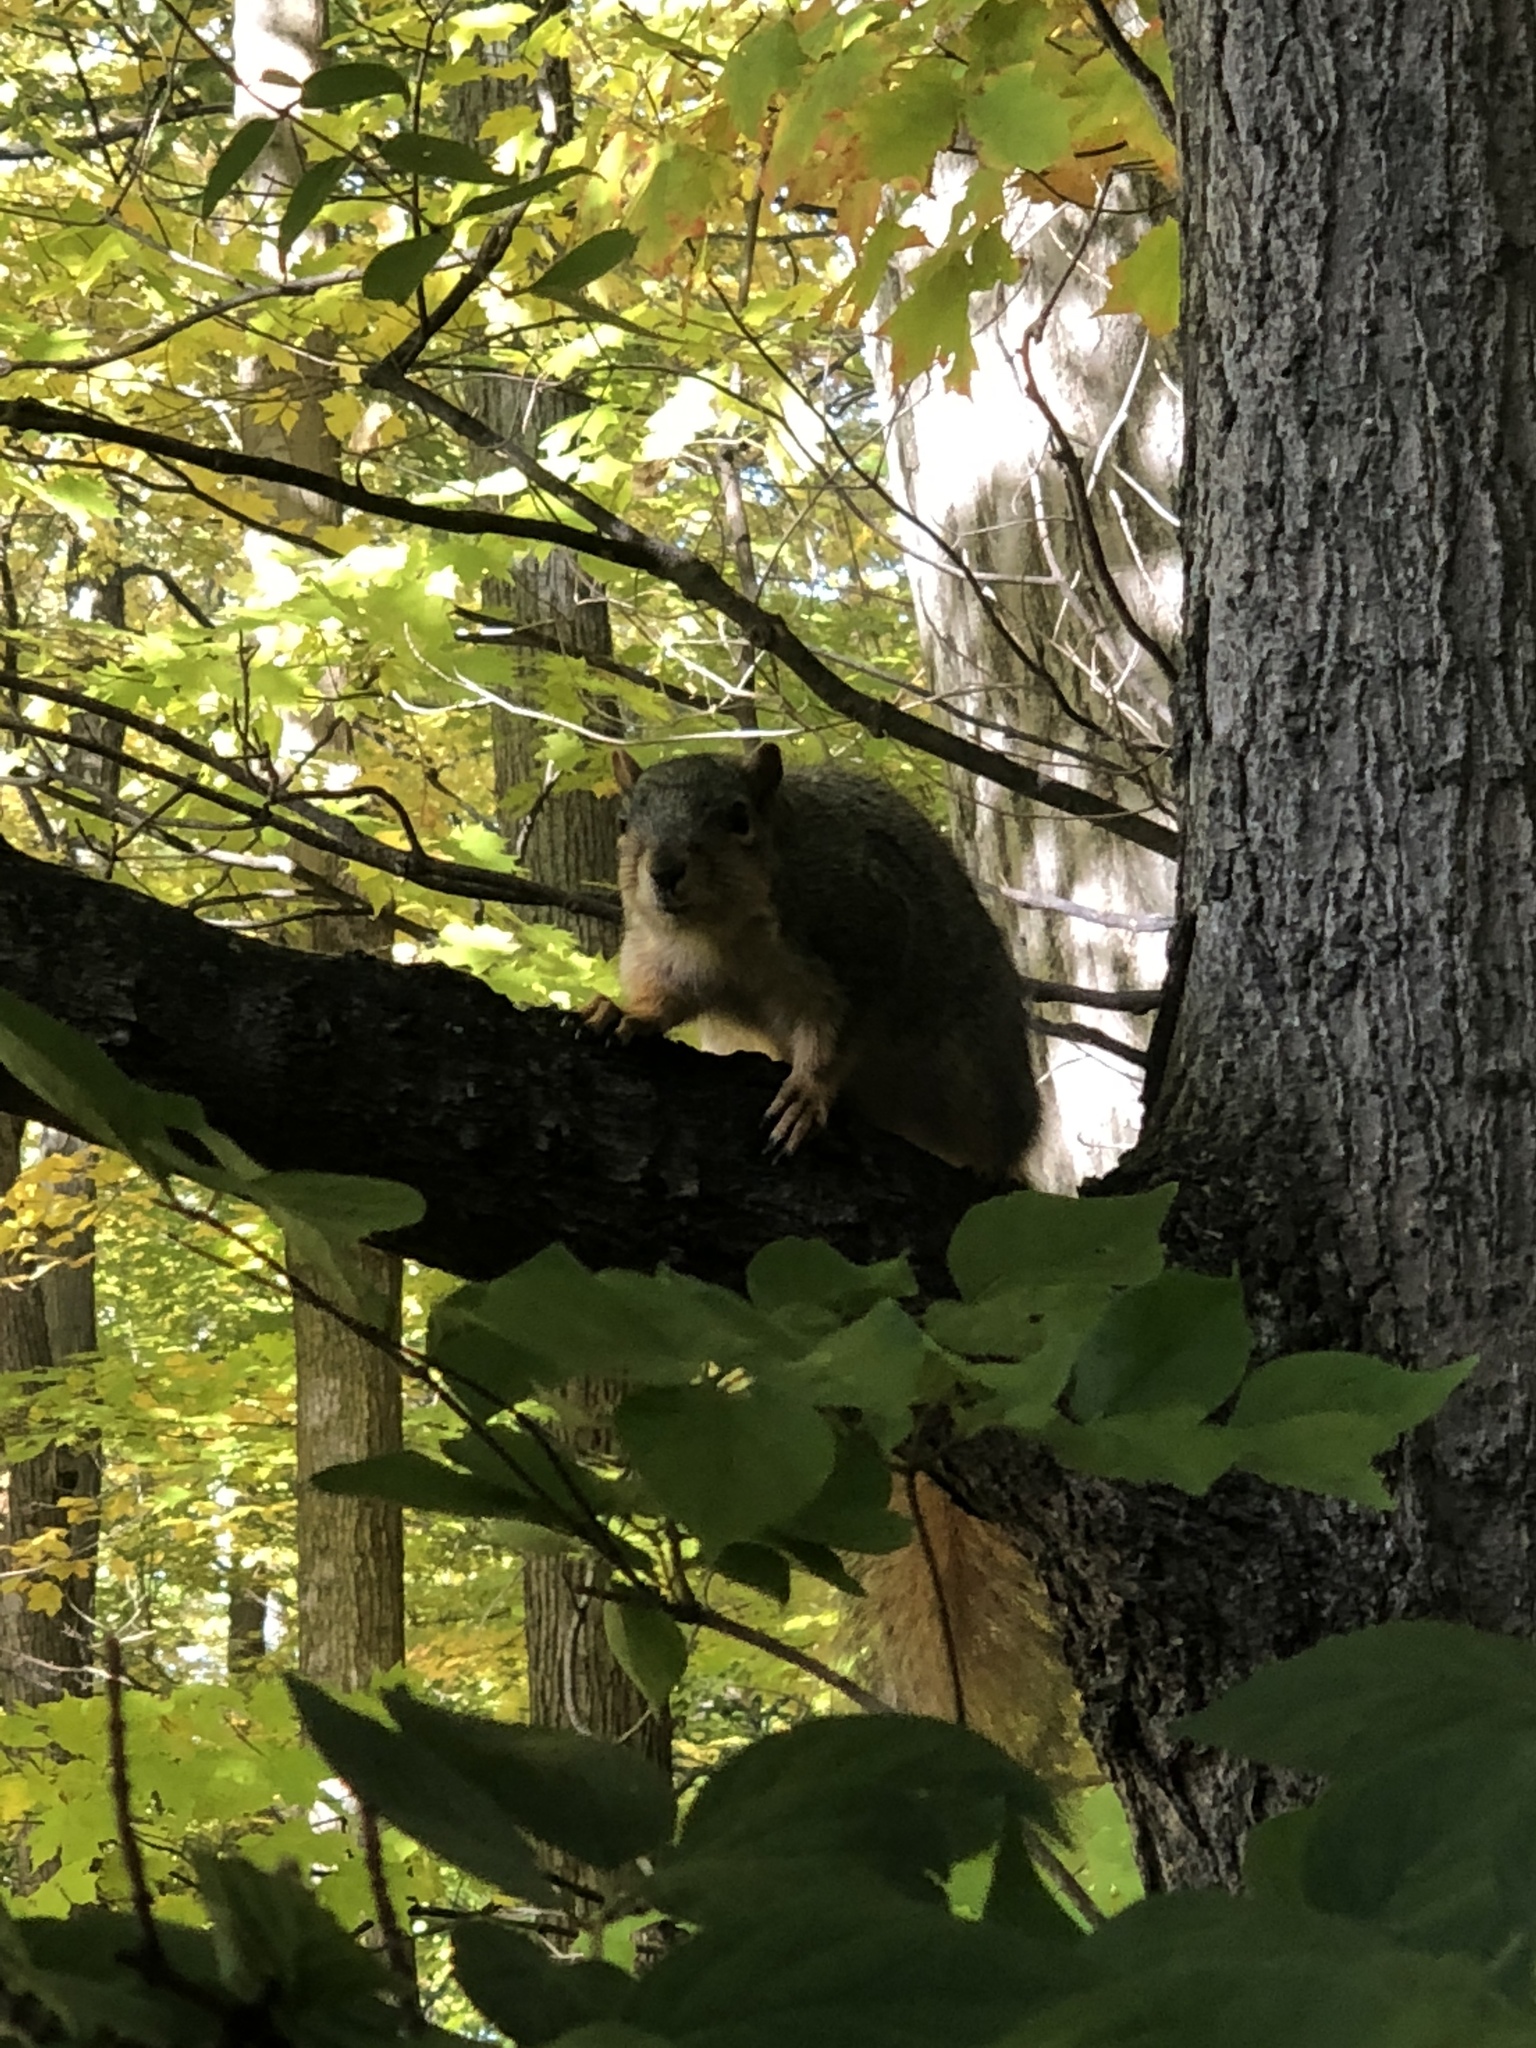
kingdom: Animalia
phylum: Chordata
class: Mammalia
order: Rodentia
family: Sciuridae
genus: Sciurus
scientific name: Sciurus niger
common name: Fox squirrel
